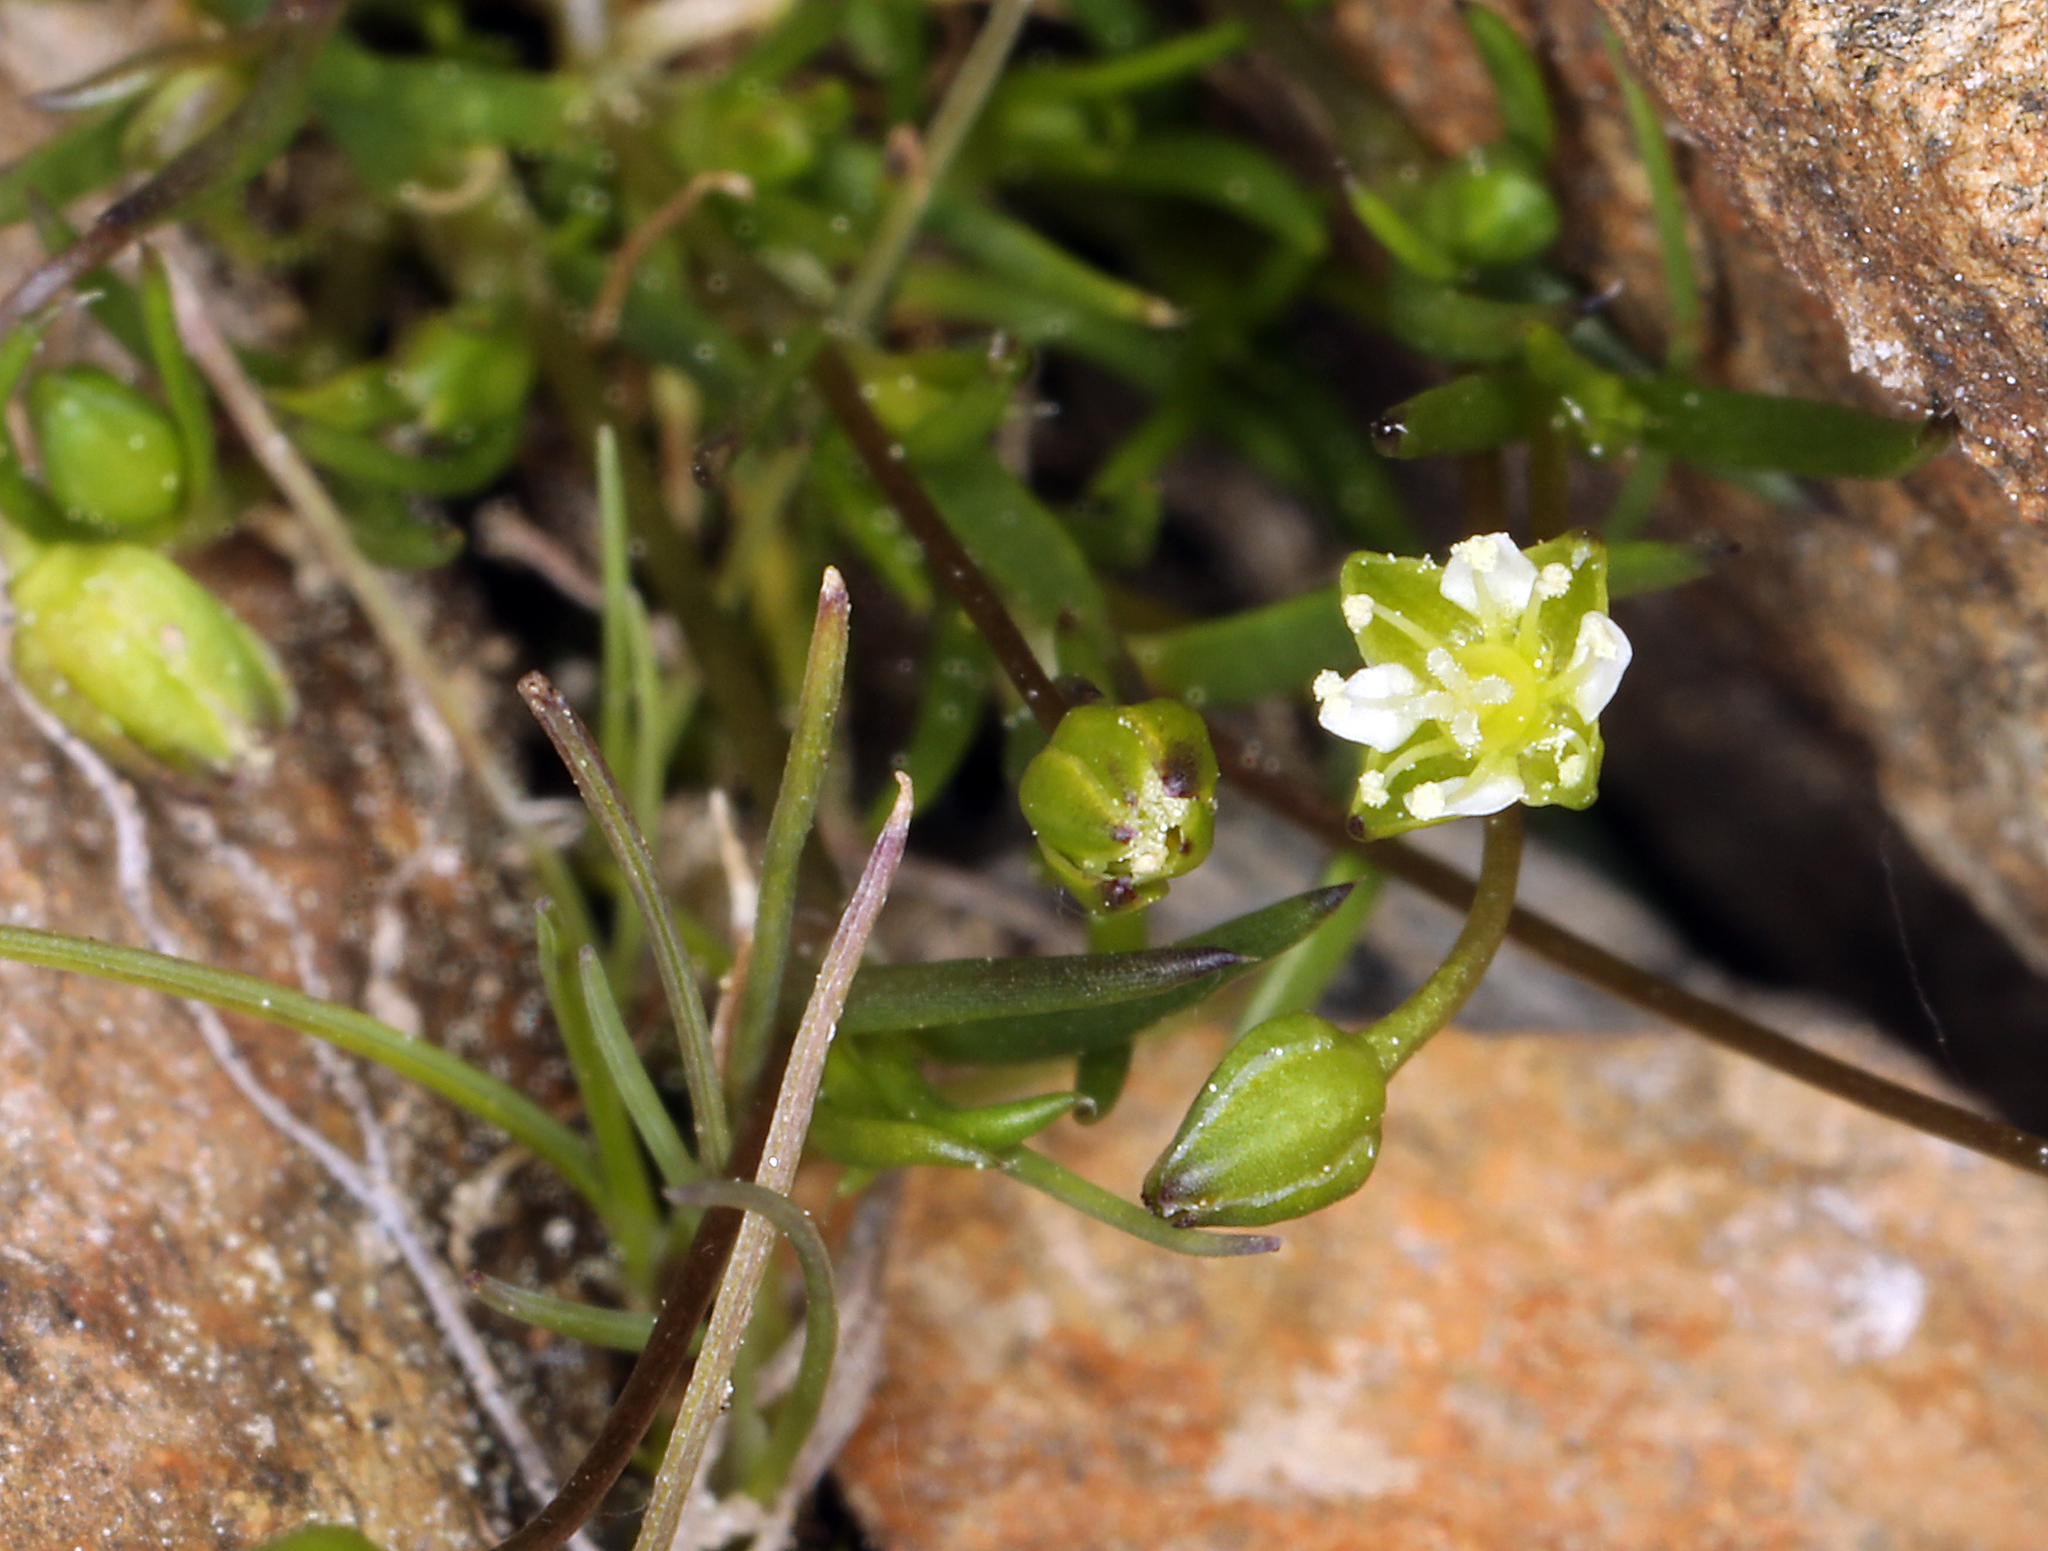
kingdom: Plantae
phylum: Tracheophyta
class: Magnoliopsida
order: Caryophyllales
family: Caryophyllaceae
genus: Sagina
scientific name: Sagina saginoides
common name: Alpine pearlwort
